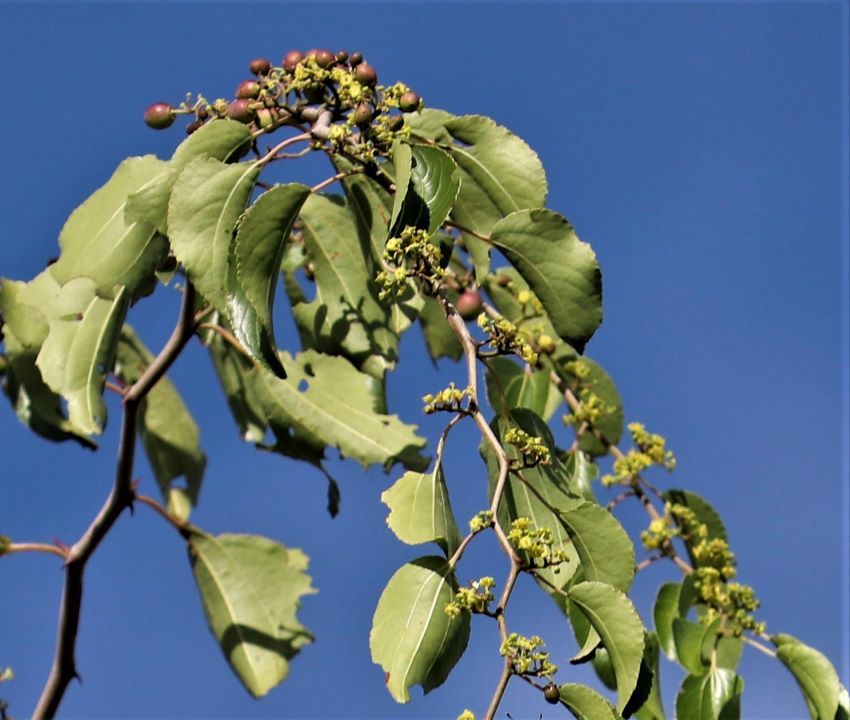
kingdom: Plantae
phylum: Tracheophyta
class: Magnoliopsida
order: Rosales
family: Rhamnaceae
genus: Ziziphus
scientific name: Ziziphus mucronata
